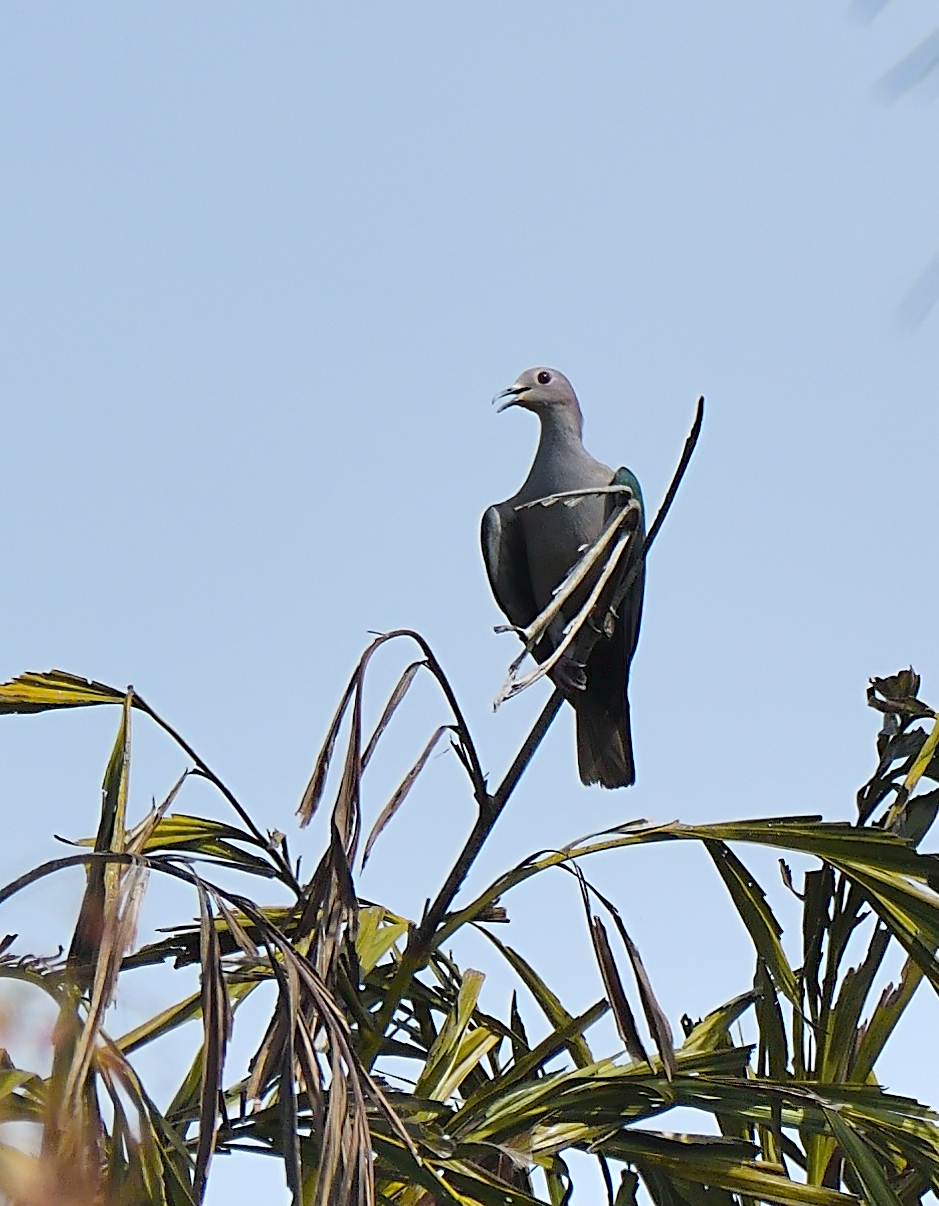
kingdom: Animalia
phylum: Chordata
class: Aves
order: Columbiformes
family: Columbidae
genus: Ducula
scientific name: Ducula aenea
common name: Green imperial pigeon
